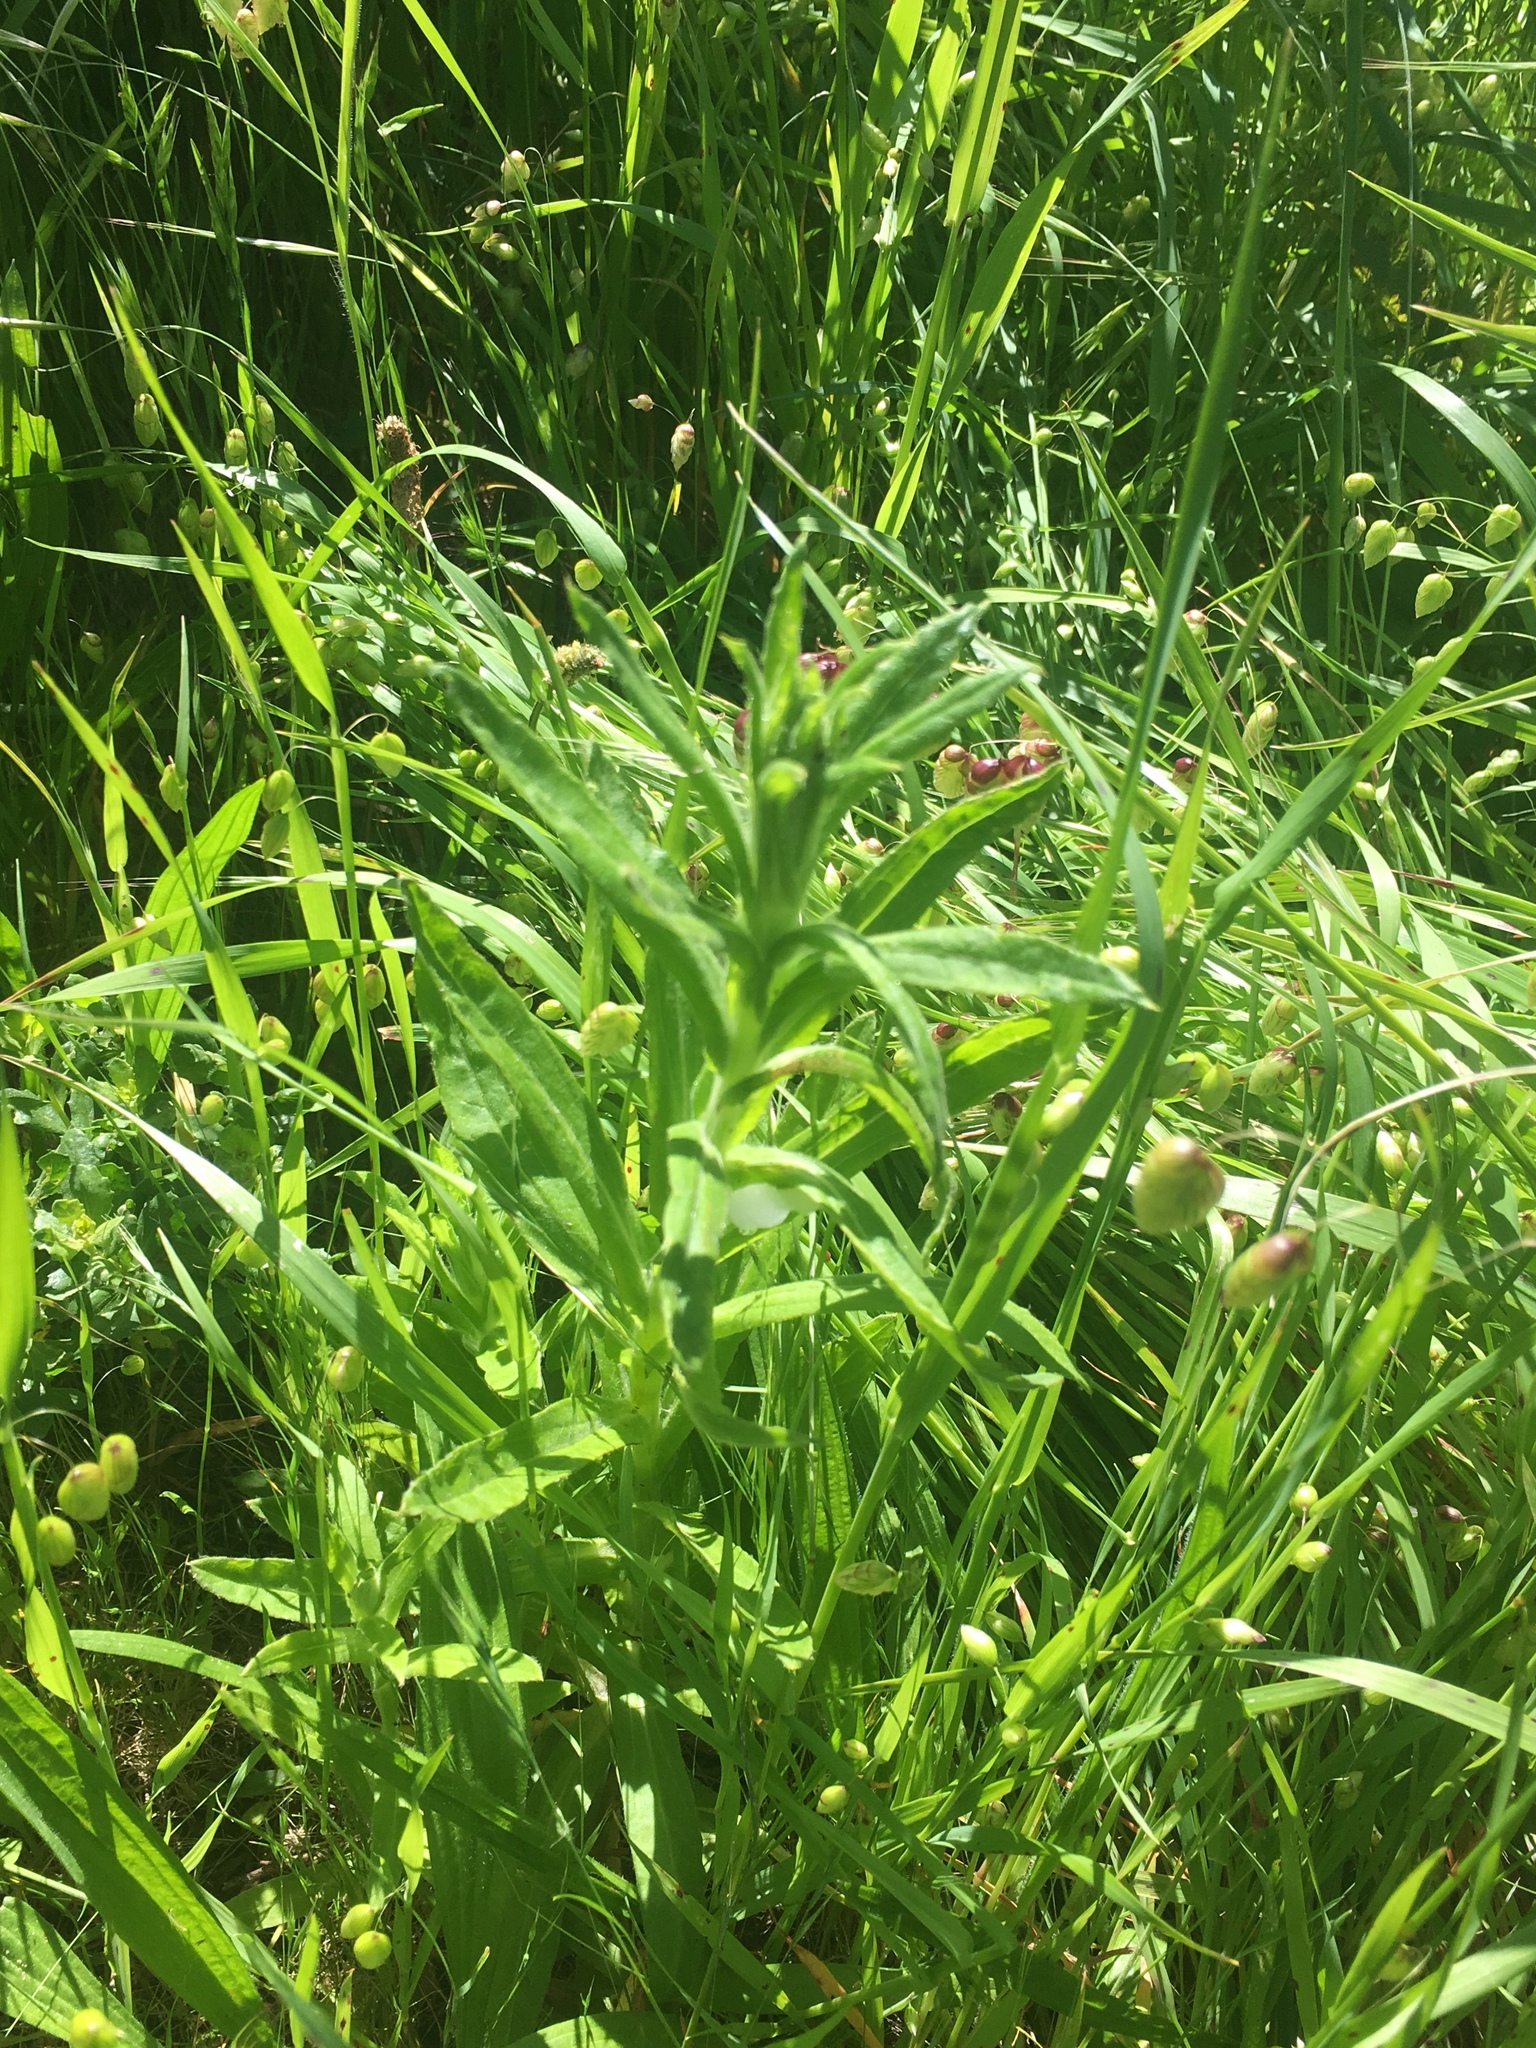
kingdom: Plantae
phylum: Tracheophyta
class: Magnoliopsida
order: Asterales
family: Asteraceae
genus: Madia
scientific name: Madia sativa
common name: Coast tarweed
